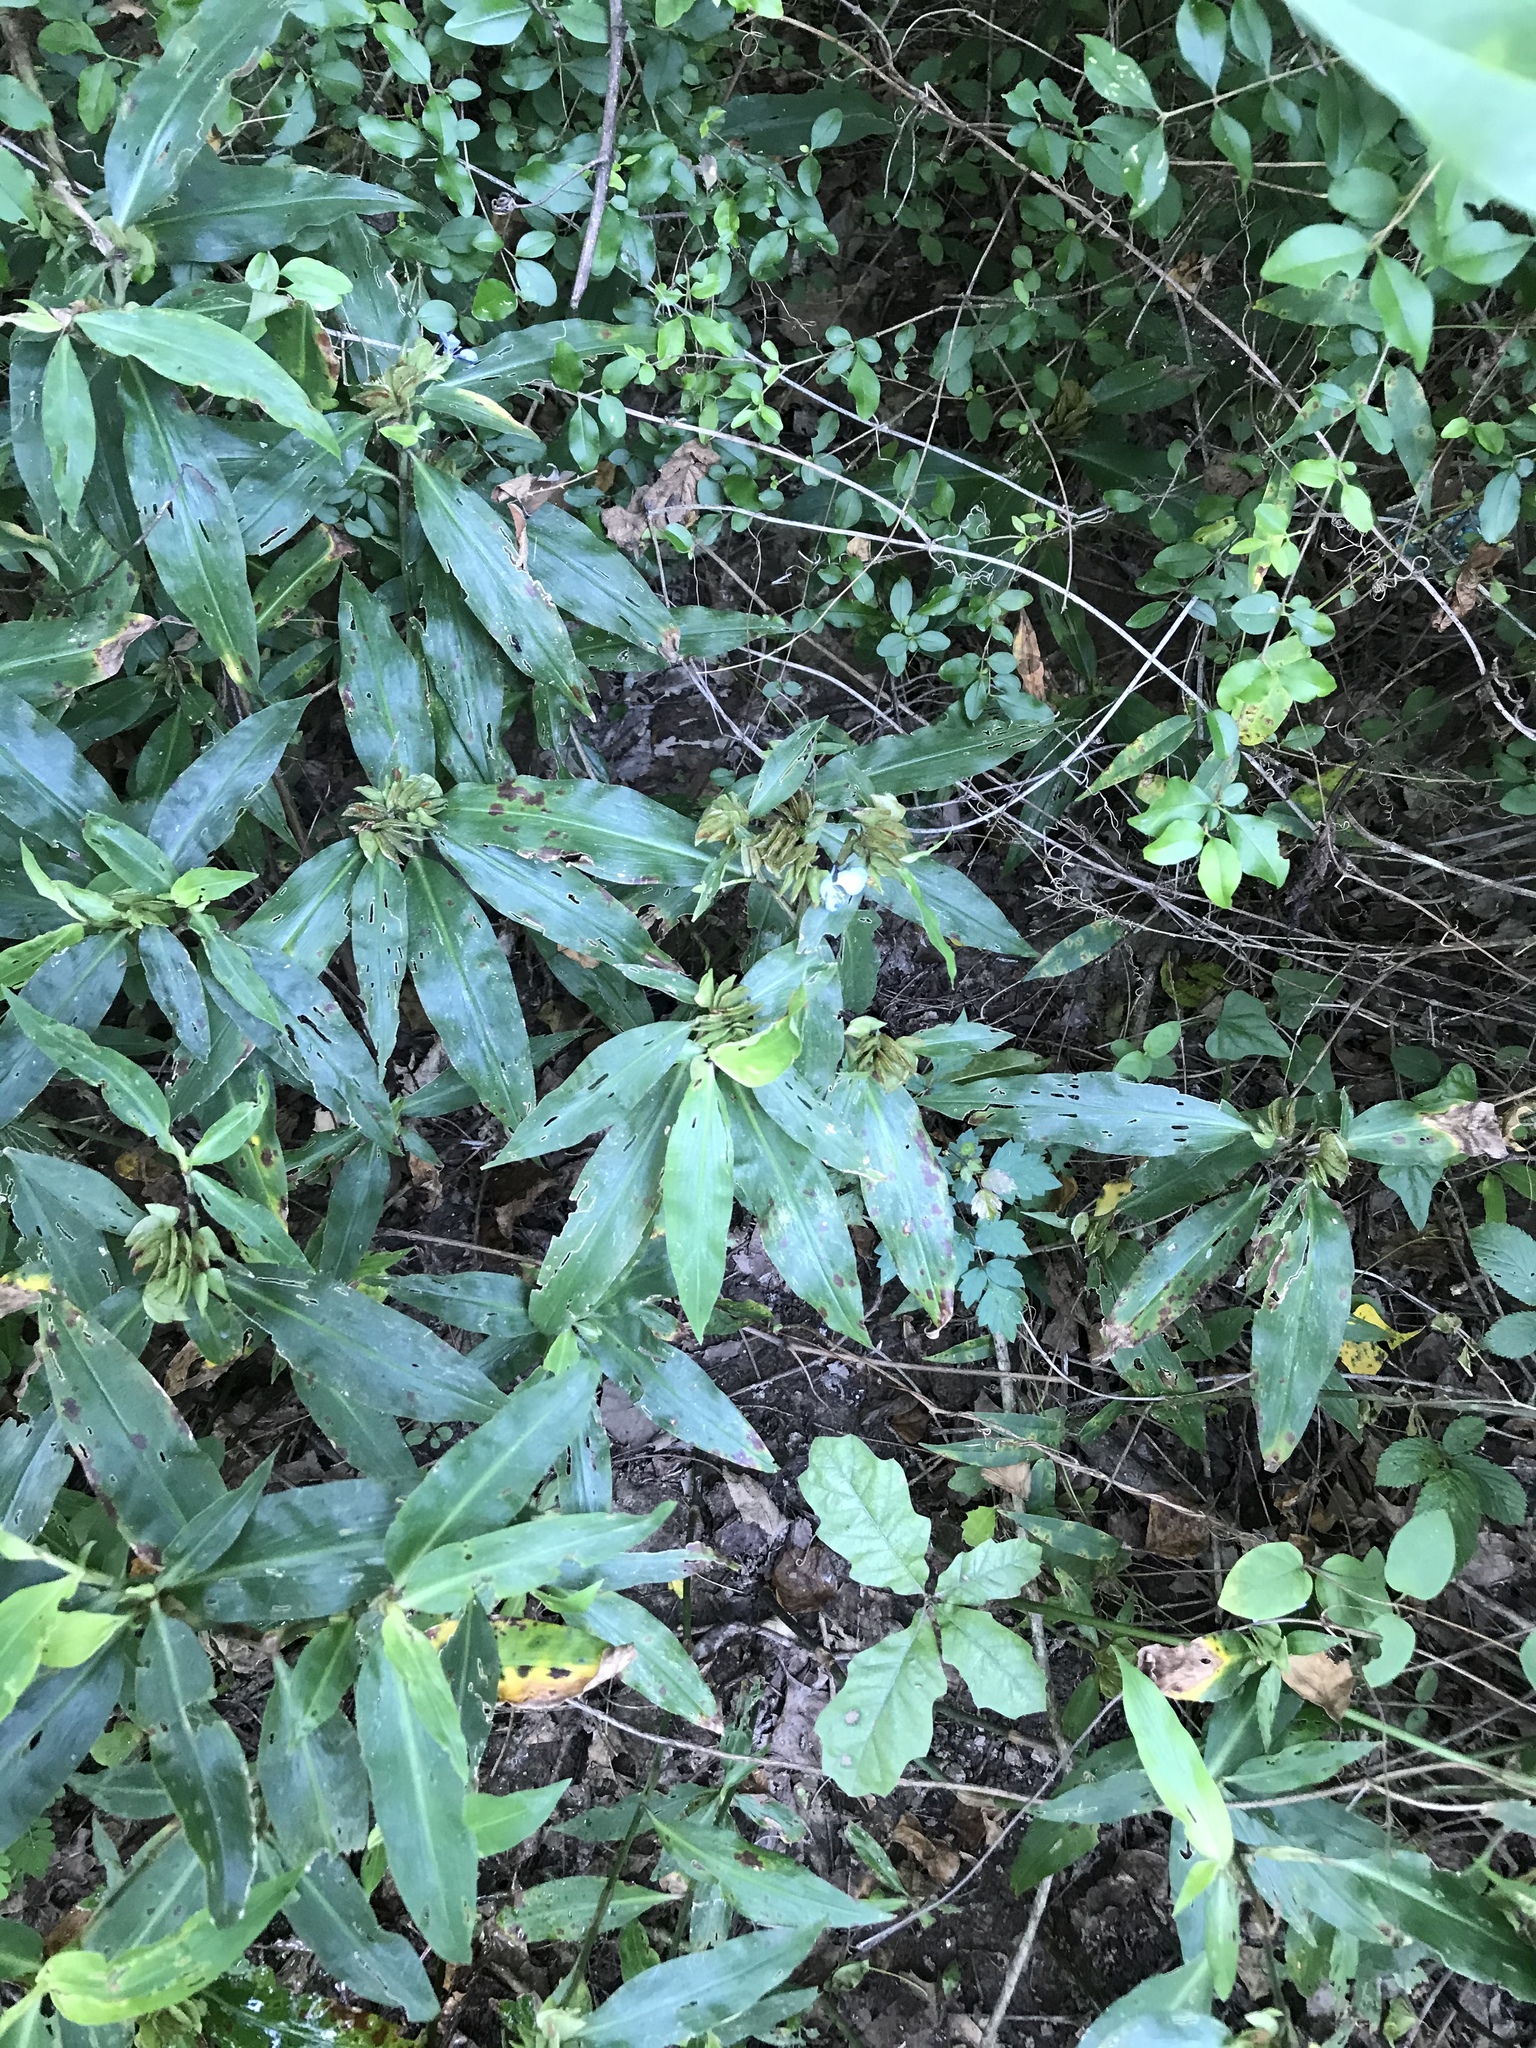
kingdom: Plantae
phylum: Tracheophyta
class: Liliopsida
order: Commelinales
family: Commelinaceae
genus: Commelina
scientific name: Commelina virginica
